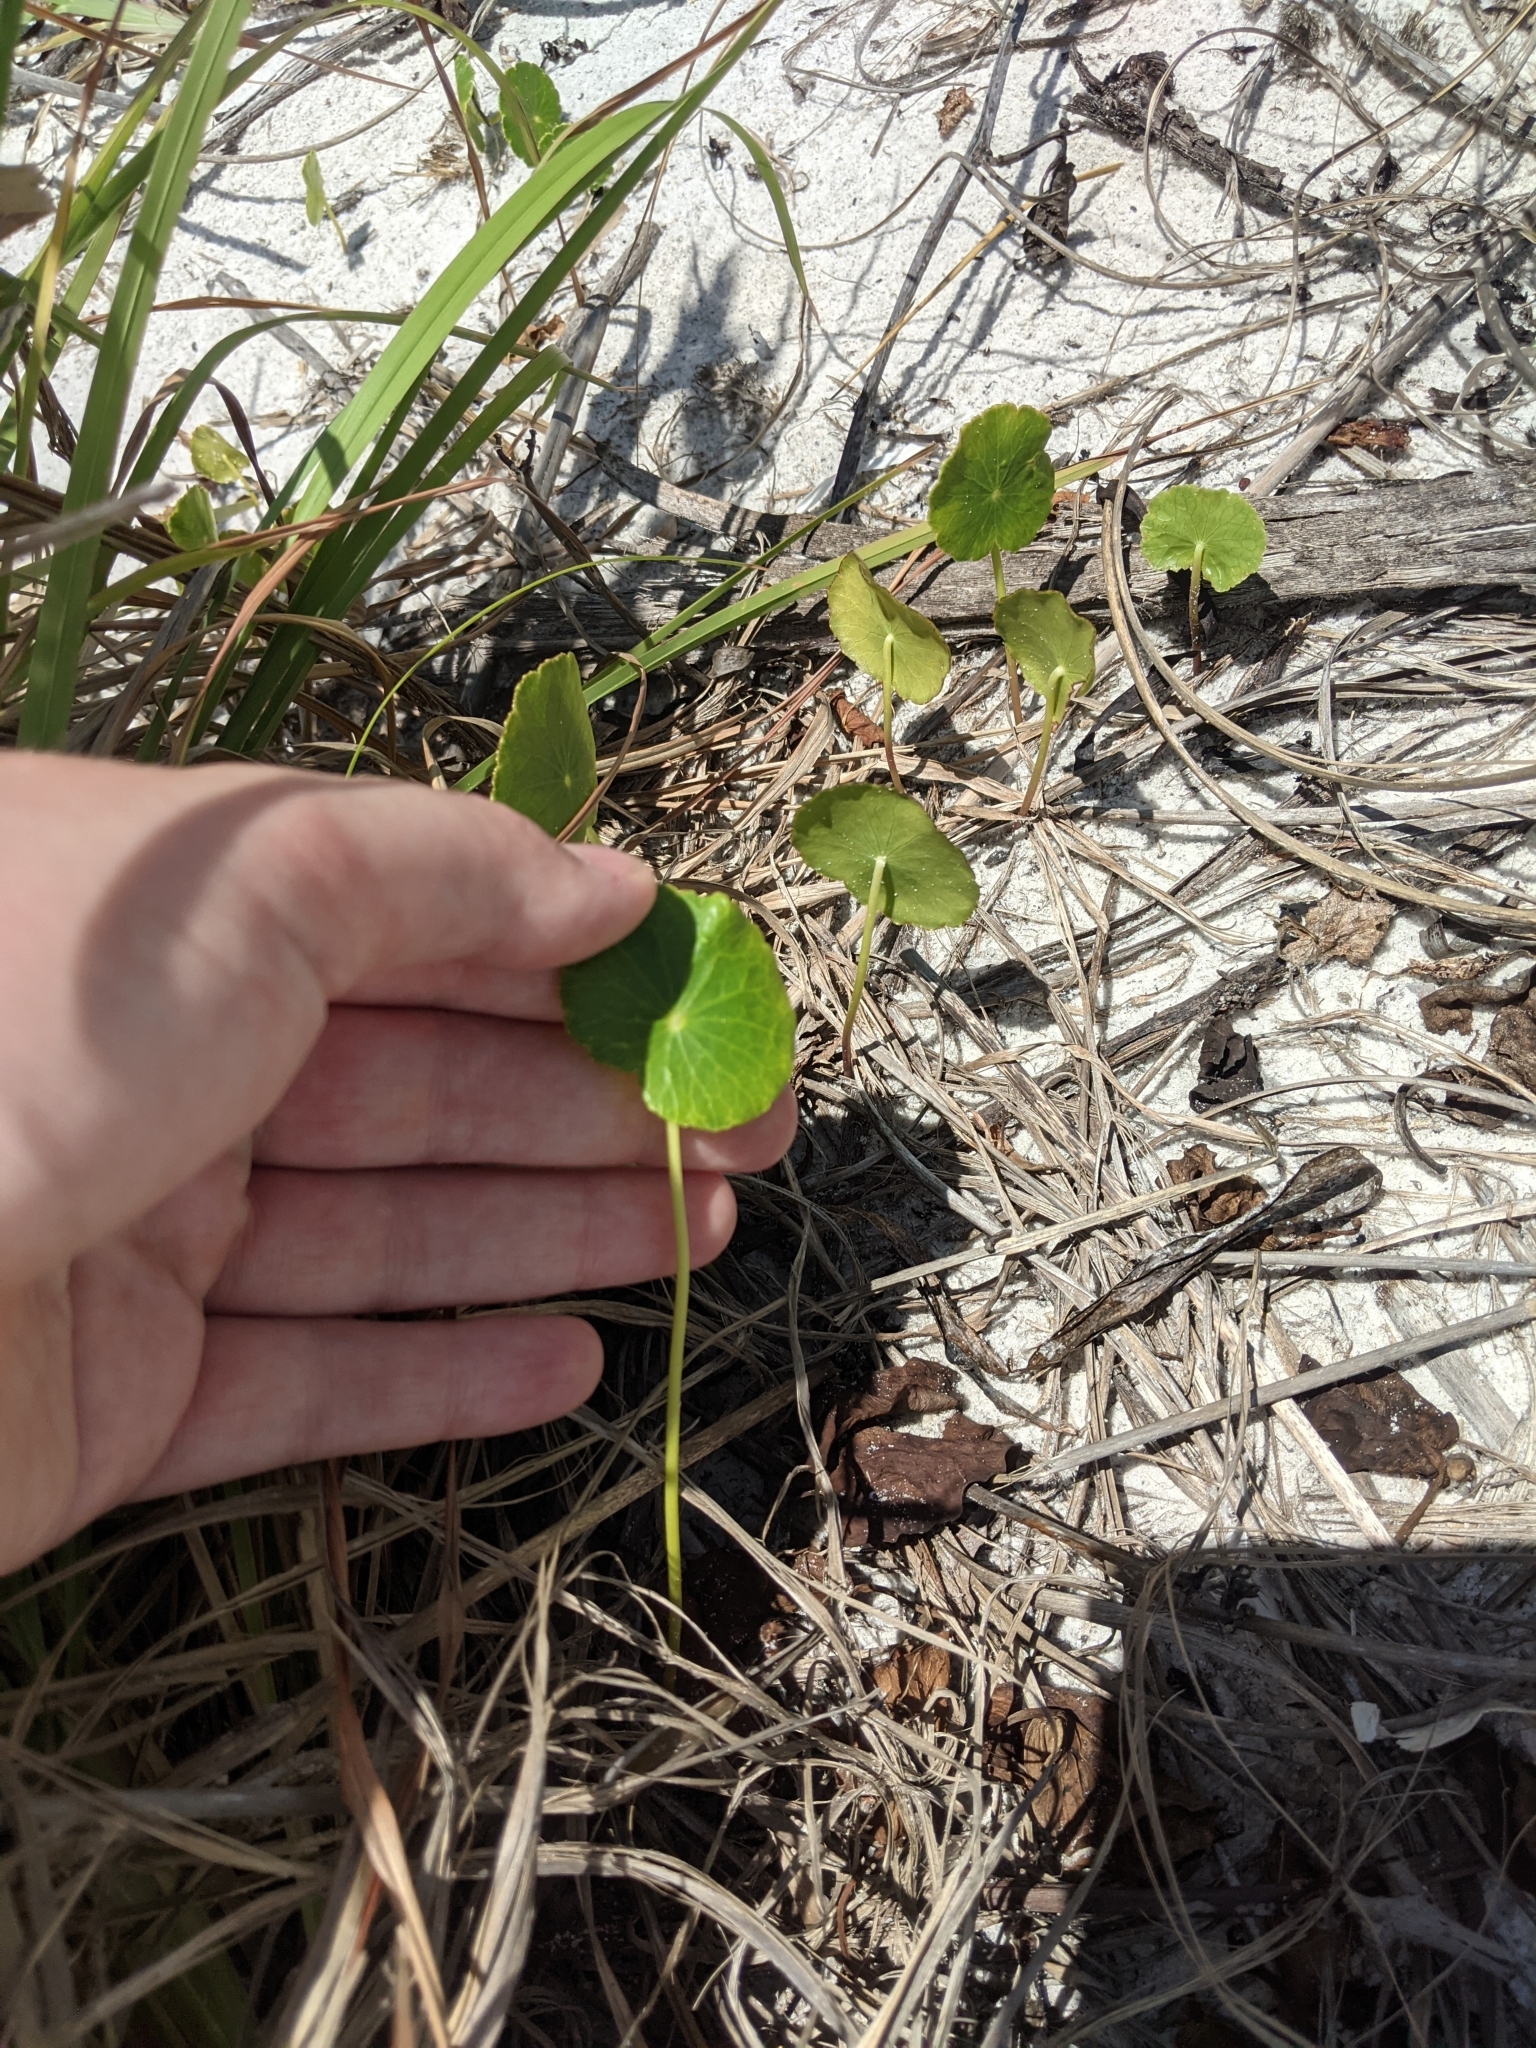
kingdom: Plantae
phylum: Tracheophyta
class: Magnoliopsida
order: Apiales
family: Araliaceae
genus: Hydrocotyle
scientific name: Hydrocotyle bonariensis
